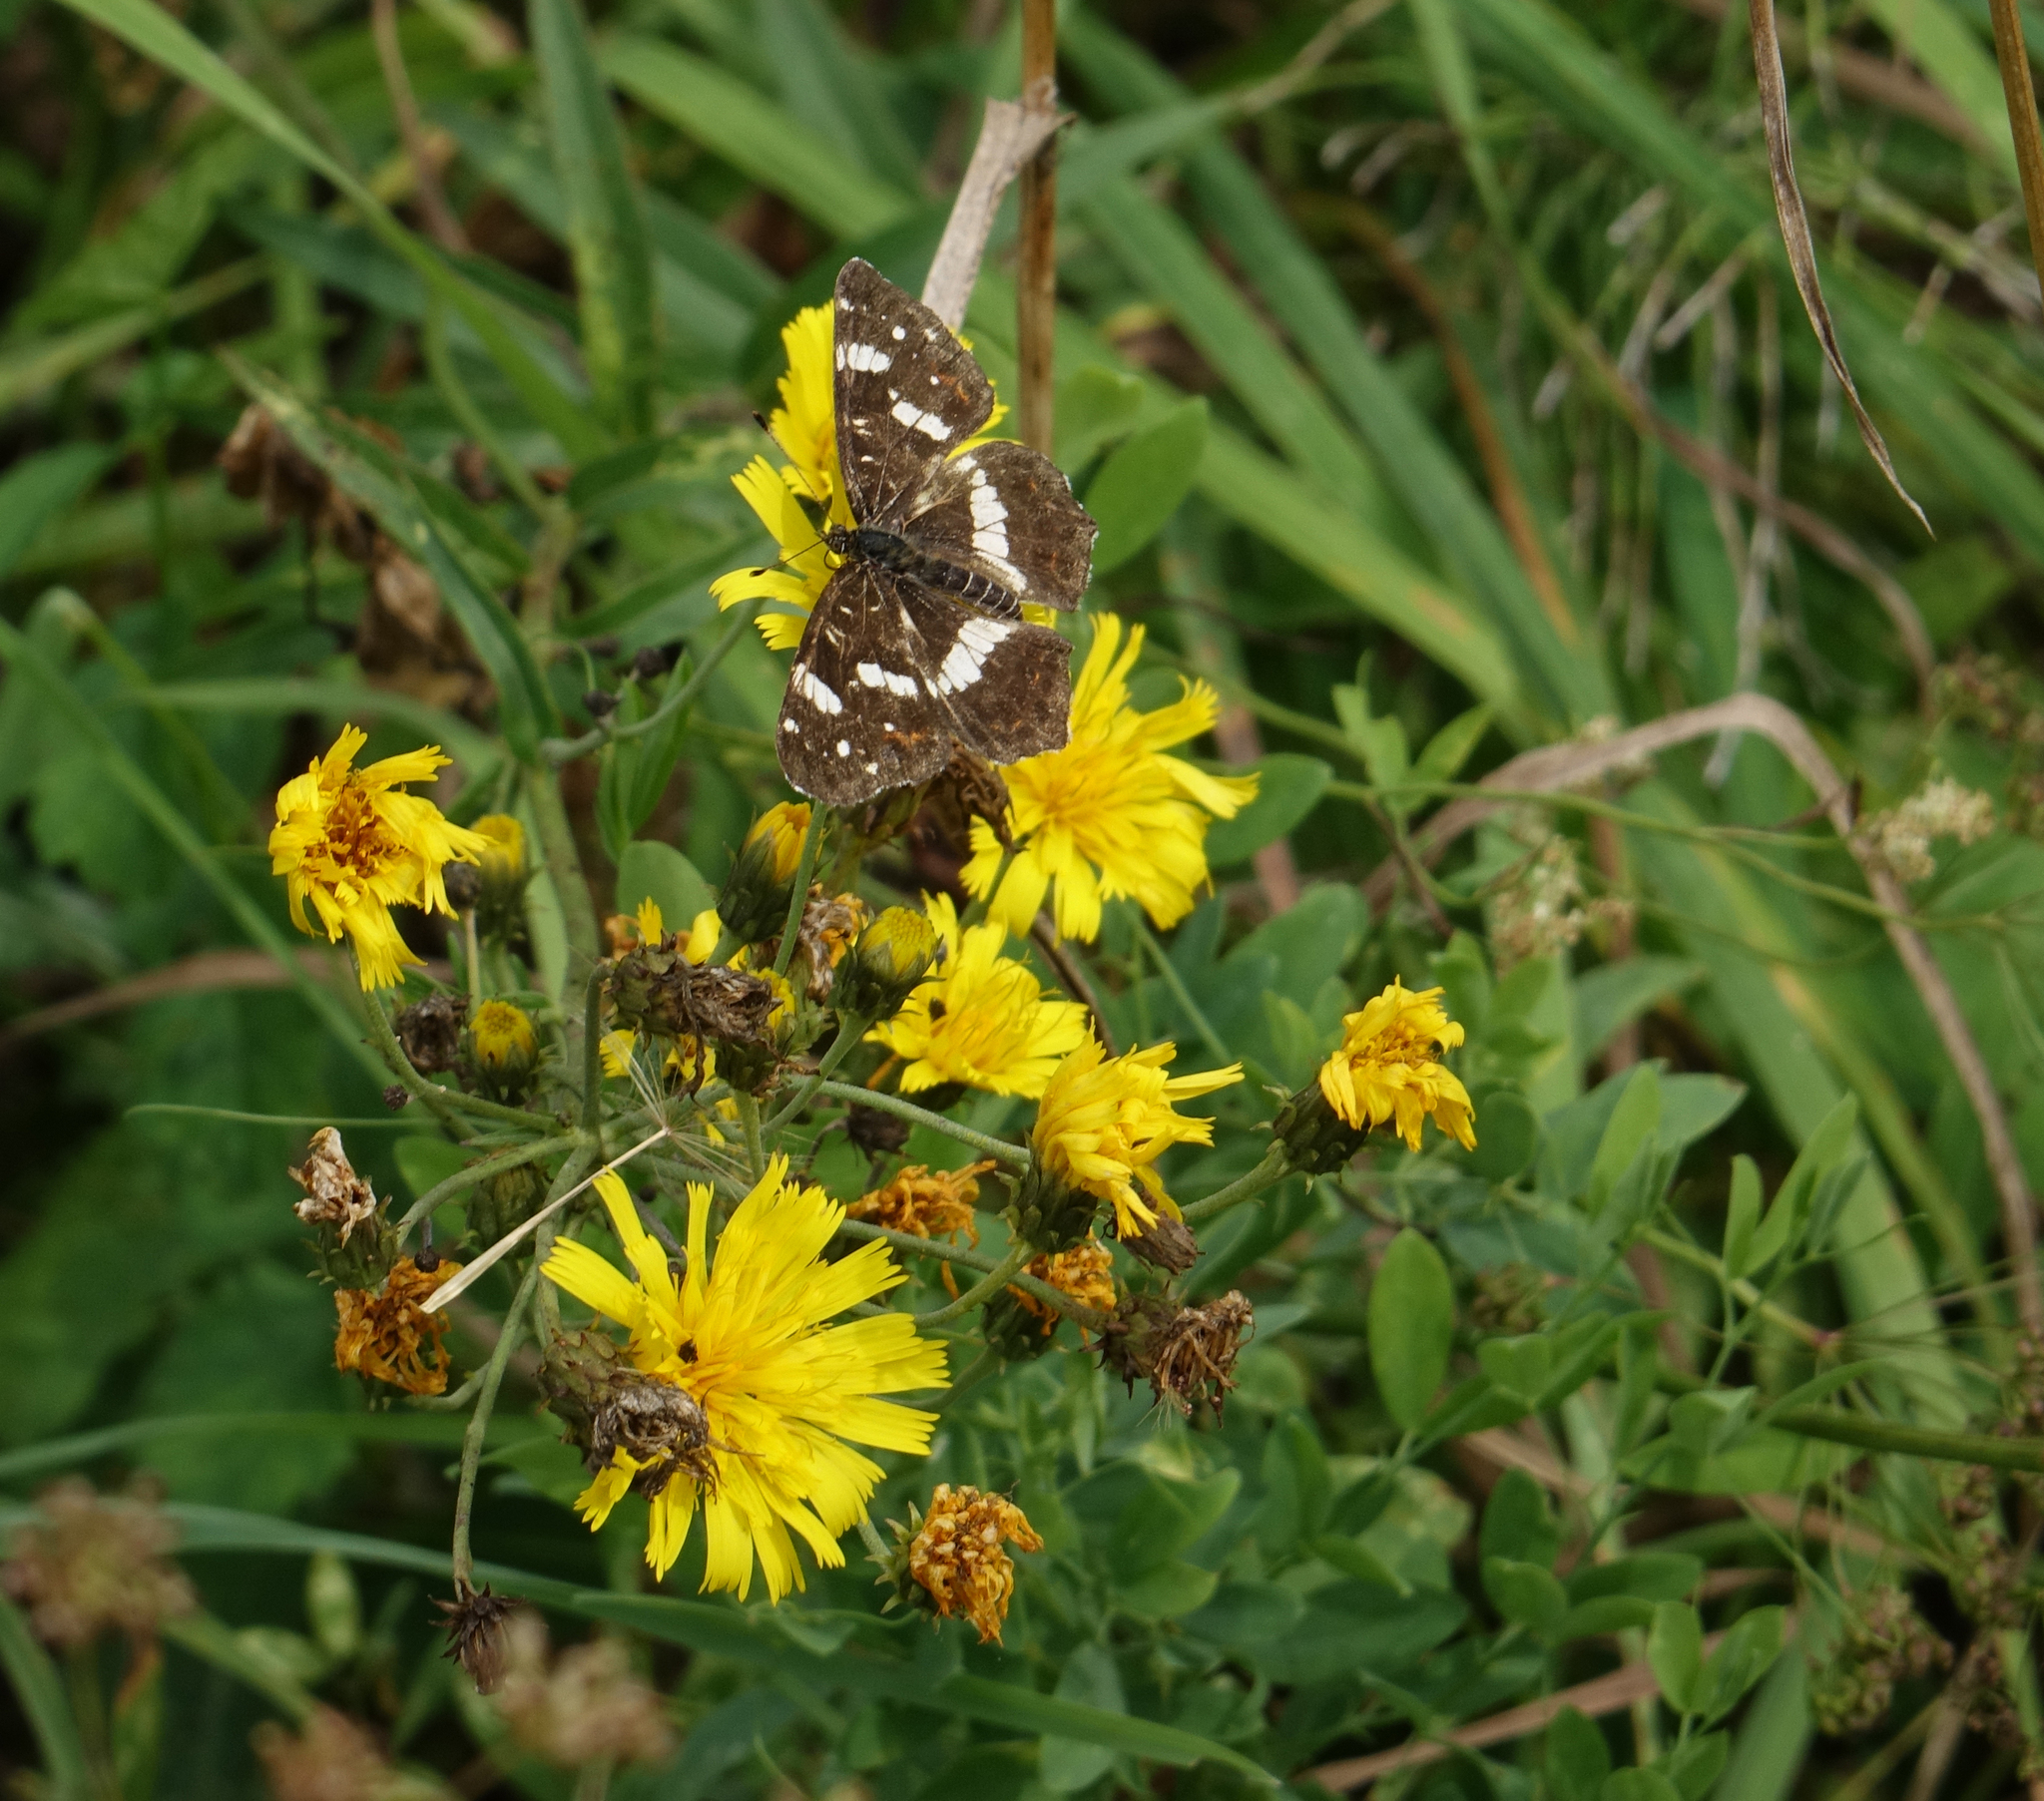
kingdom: Animalia
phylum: Arthropoda
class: Insecta
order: Lepidoptera
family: Nymphalidae
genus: Araschnia
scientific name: Araschnia levana
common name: Map butterfly
